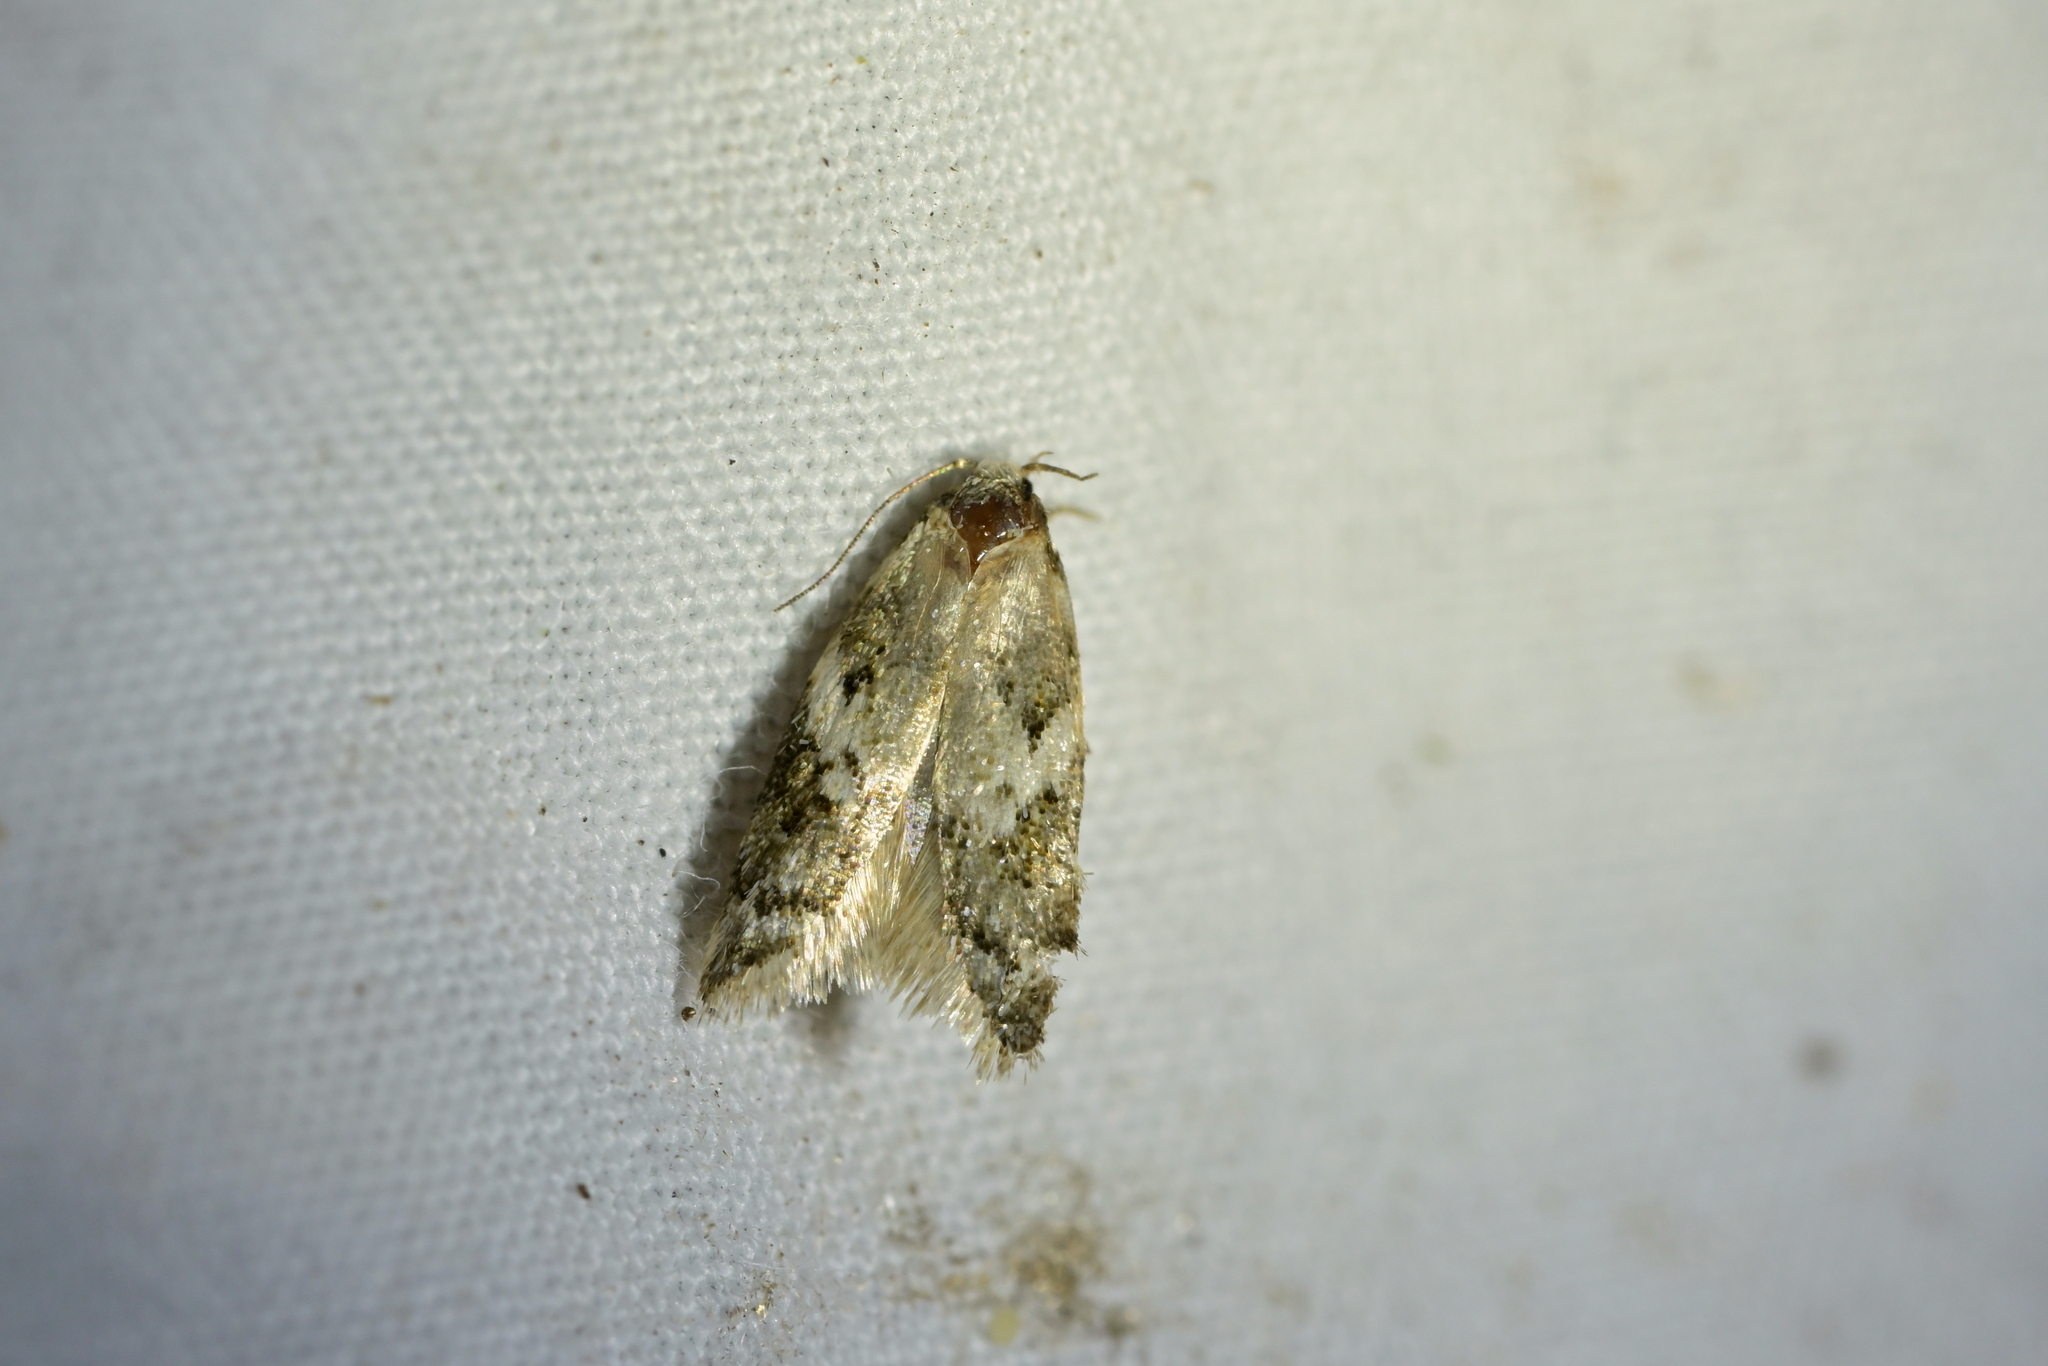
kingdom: Animalia
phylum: Arthropoda
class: Insecta
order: Lepidoptera
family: Oecophoridae
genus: Trachypepla
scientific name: Trachypepla galaxias
